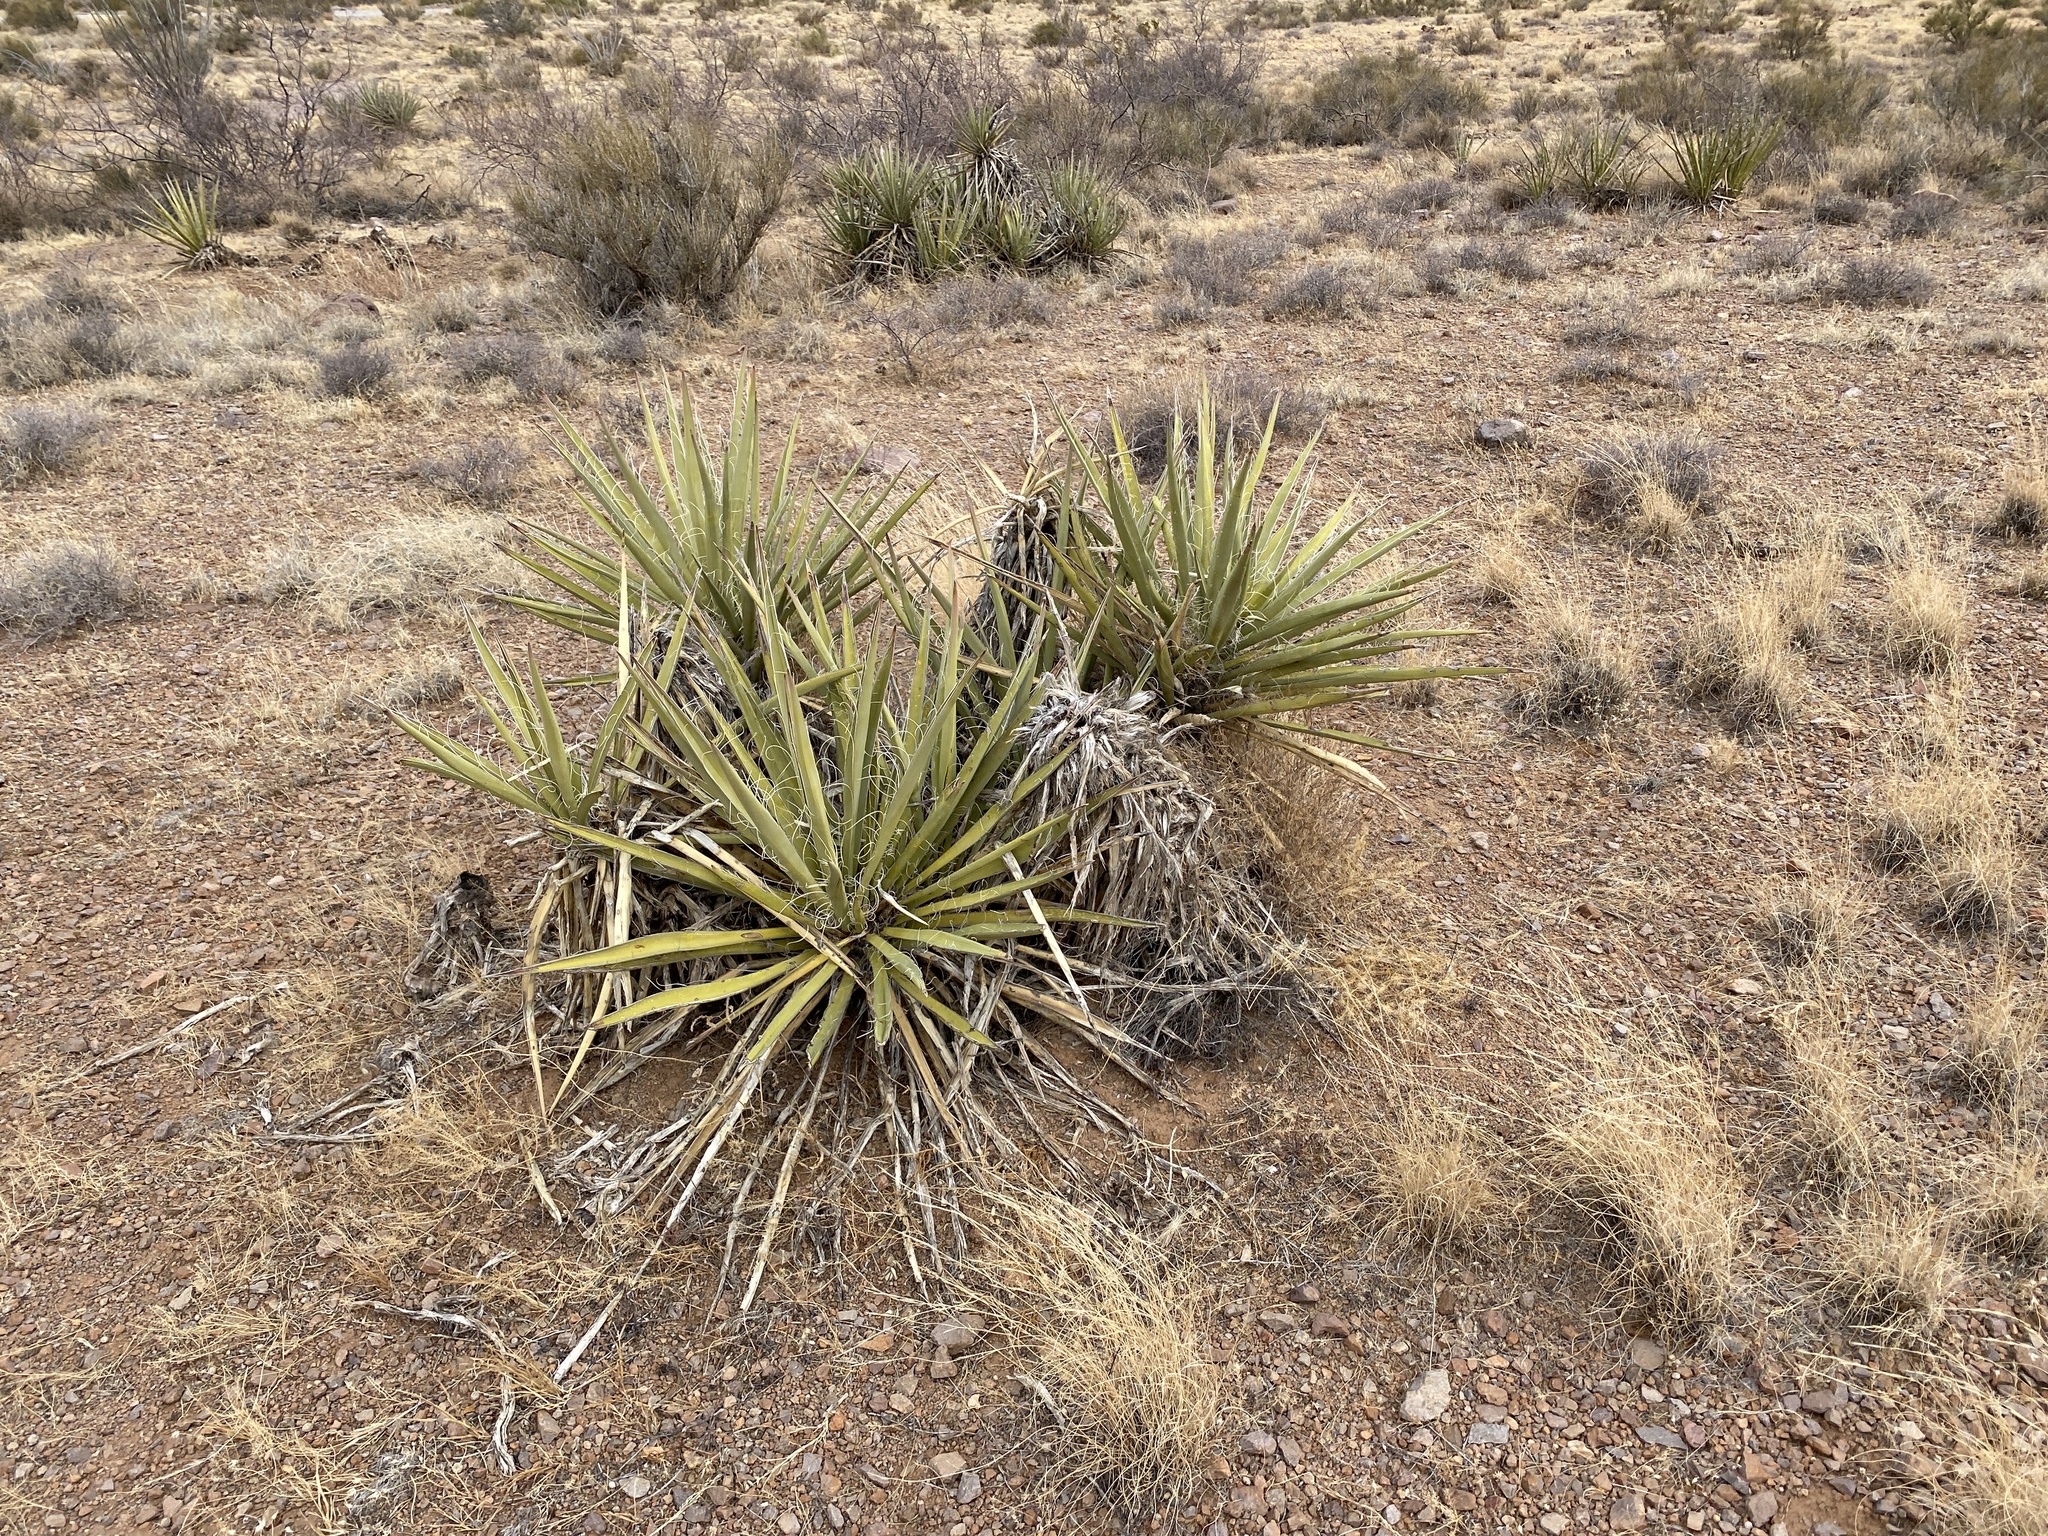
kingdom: Plantae
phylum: Tracheophyta
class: Liliopsida
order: Asparagales
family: Asparagaceae
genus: Yucca
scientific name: Yucca baccata
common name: Banana yucca
